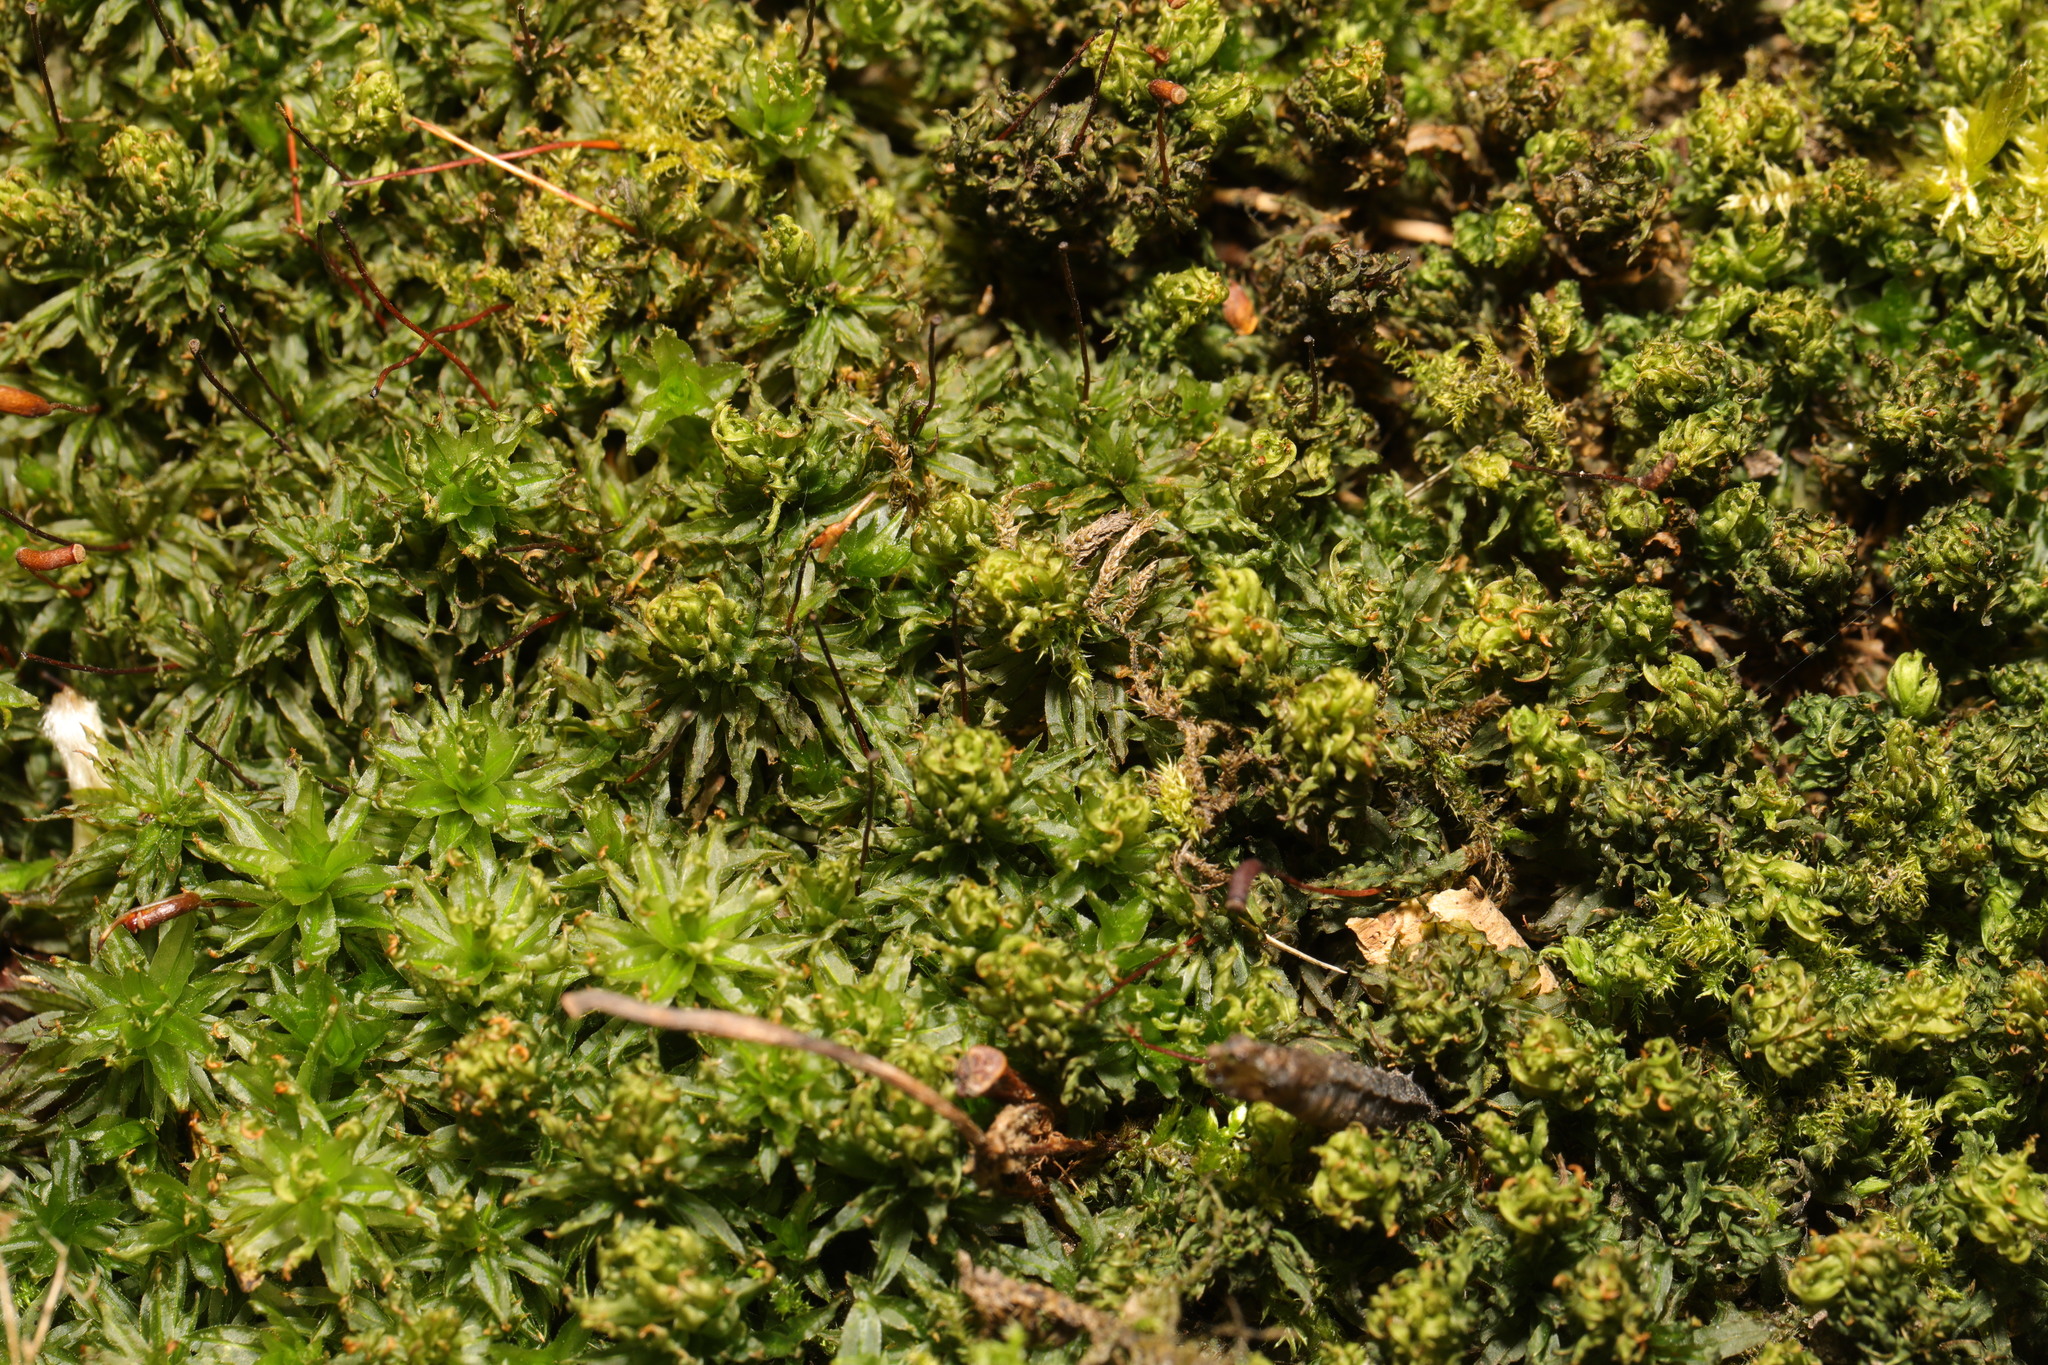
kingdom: Plantae
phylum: Bryophyta
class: Polytrichopsida
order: Polytrichales
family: Polytrichaceae
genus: Atrichum
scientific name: Atrichum undulatum
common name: Common smoothcap
